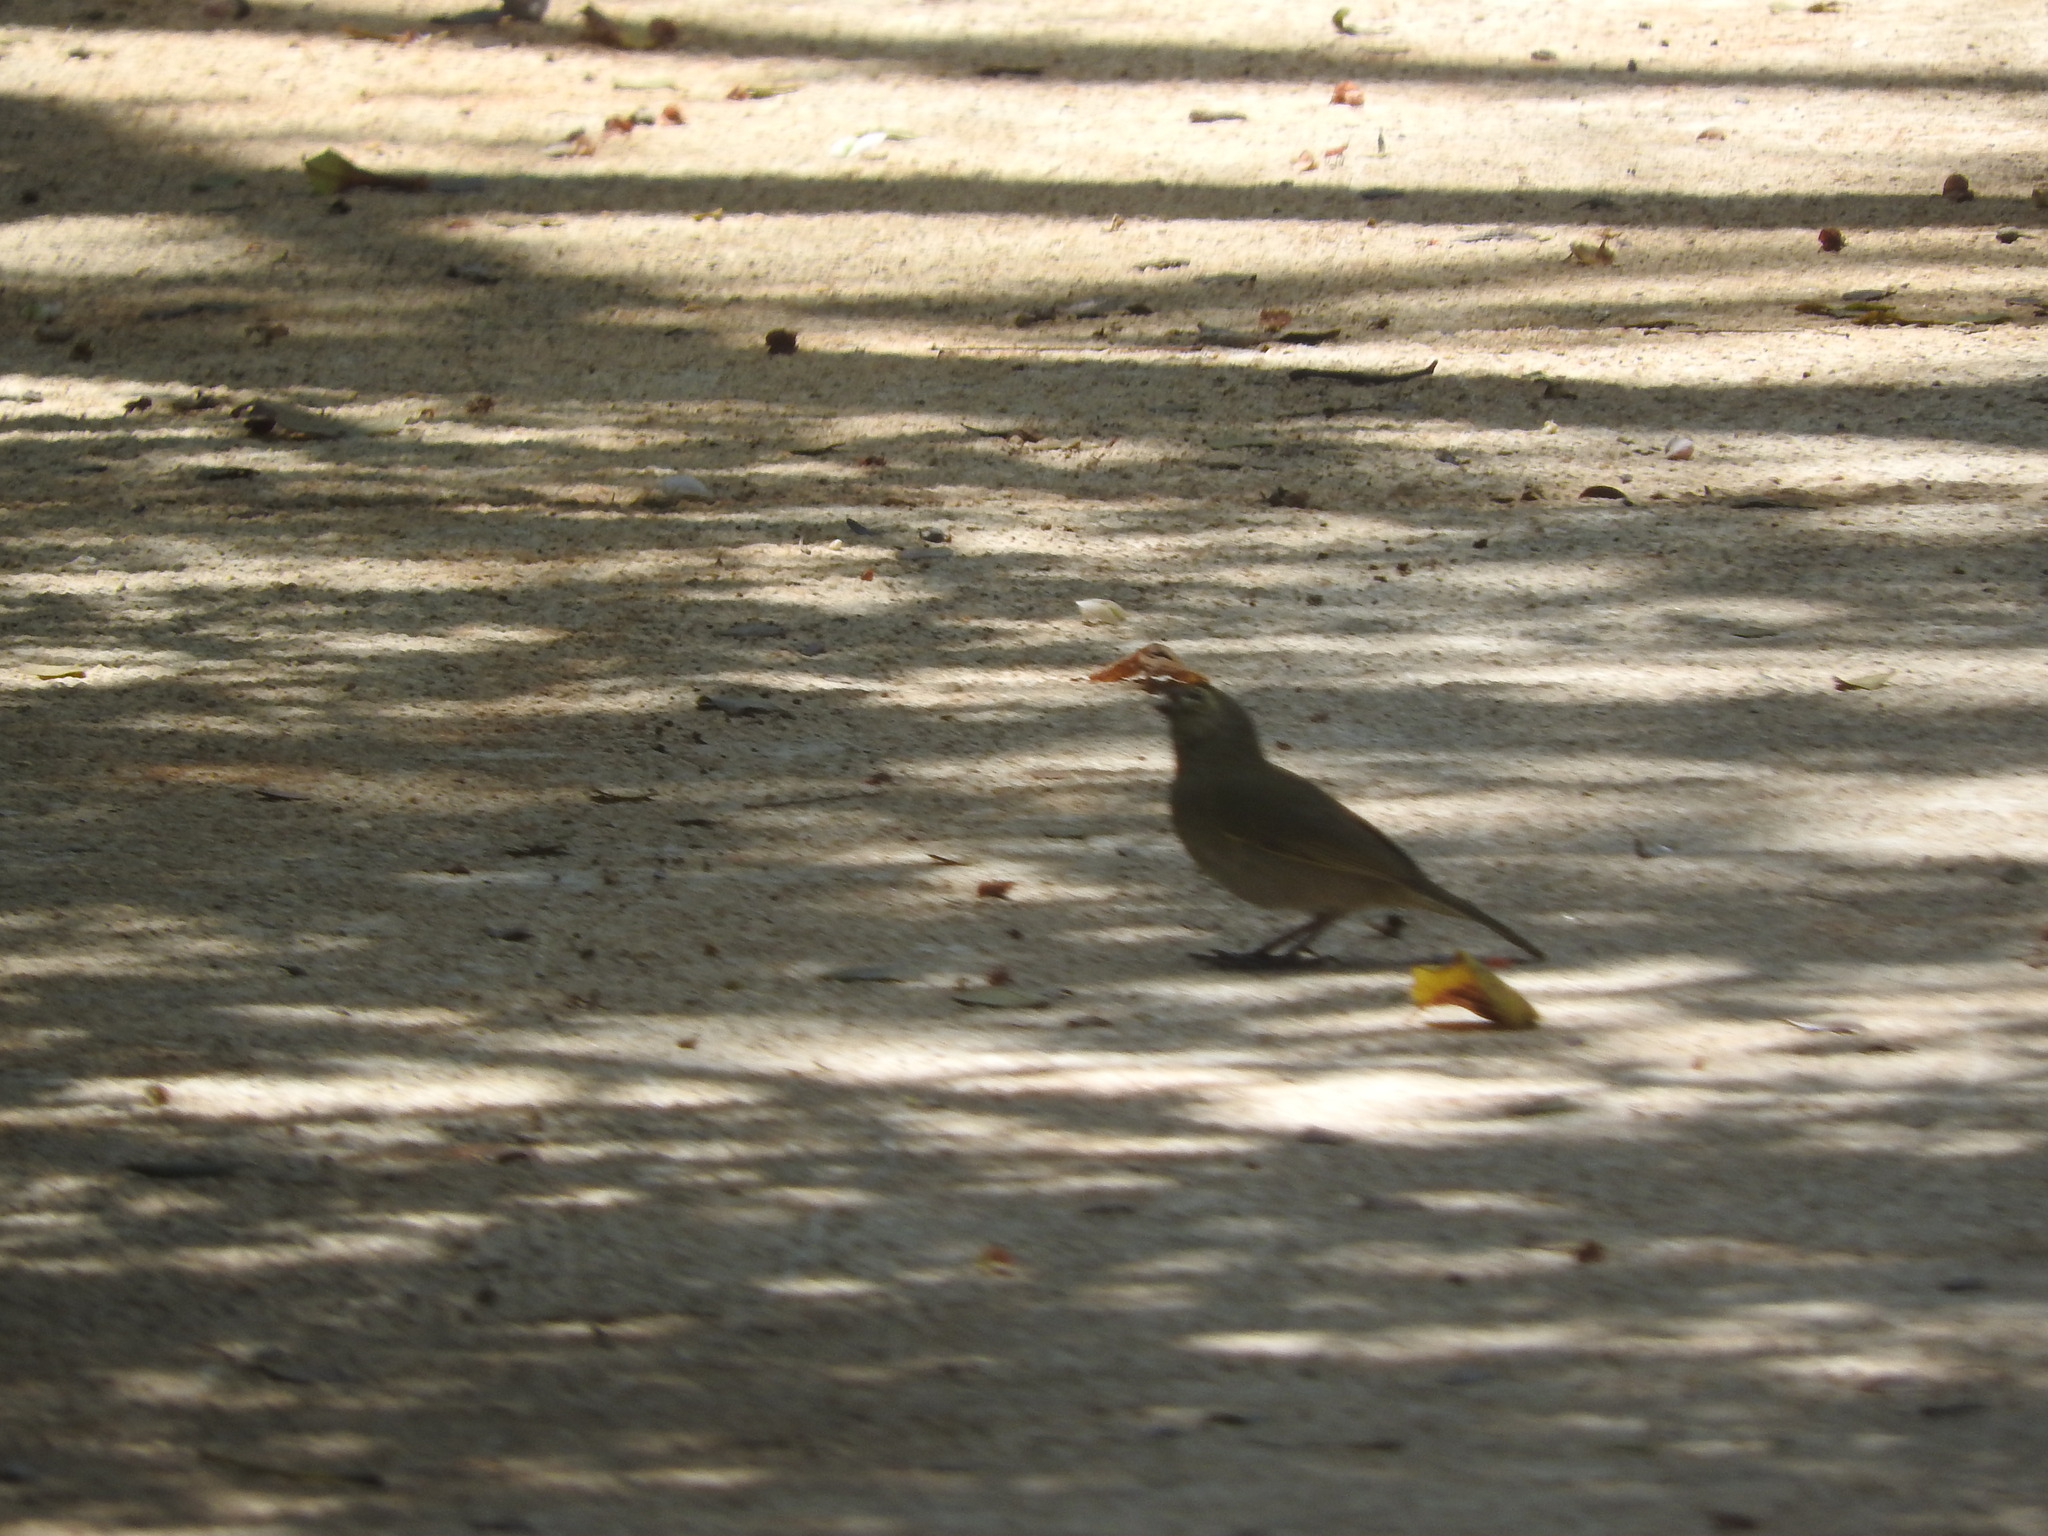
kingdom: Animalia
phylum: Chordata
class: Aves
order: Passeriformes
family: Thraupidae
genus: Tiaris
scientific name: Tiaris olivaceus
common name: Yellow-faced grassquit
